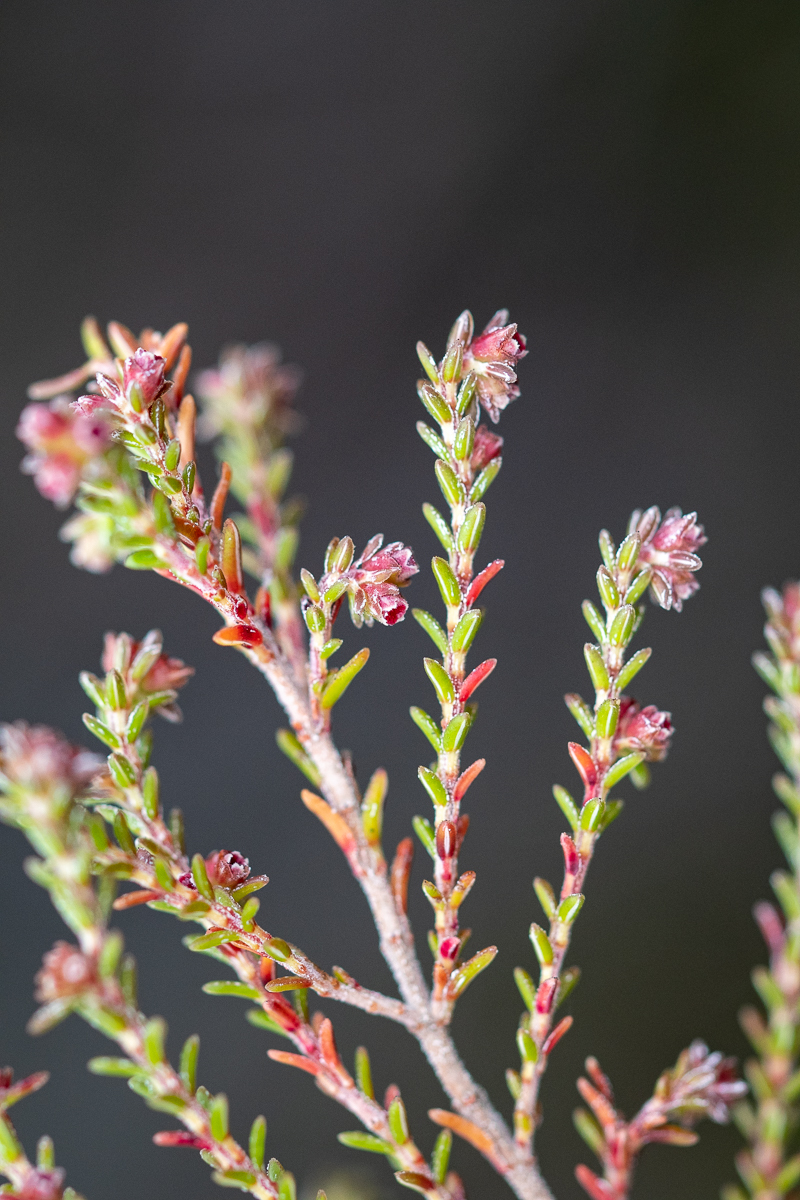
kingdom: Plantae
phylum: Tracheophyta
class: Magnoliopsida
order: Ericales
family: Ericaceae
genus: Erica
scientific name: Erica serrata
